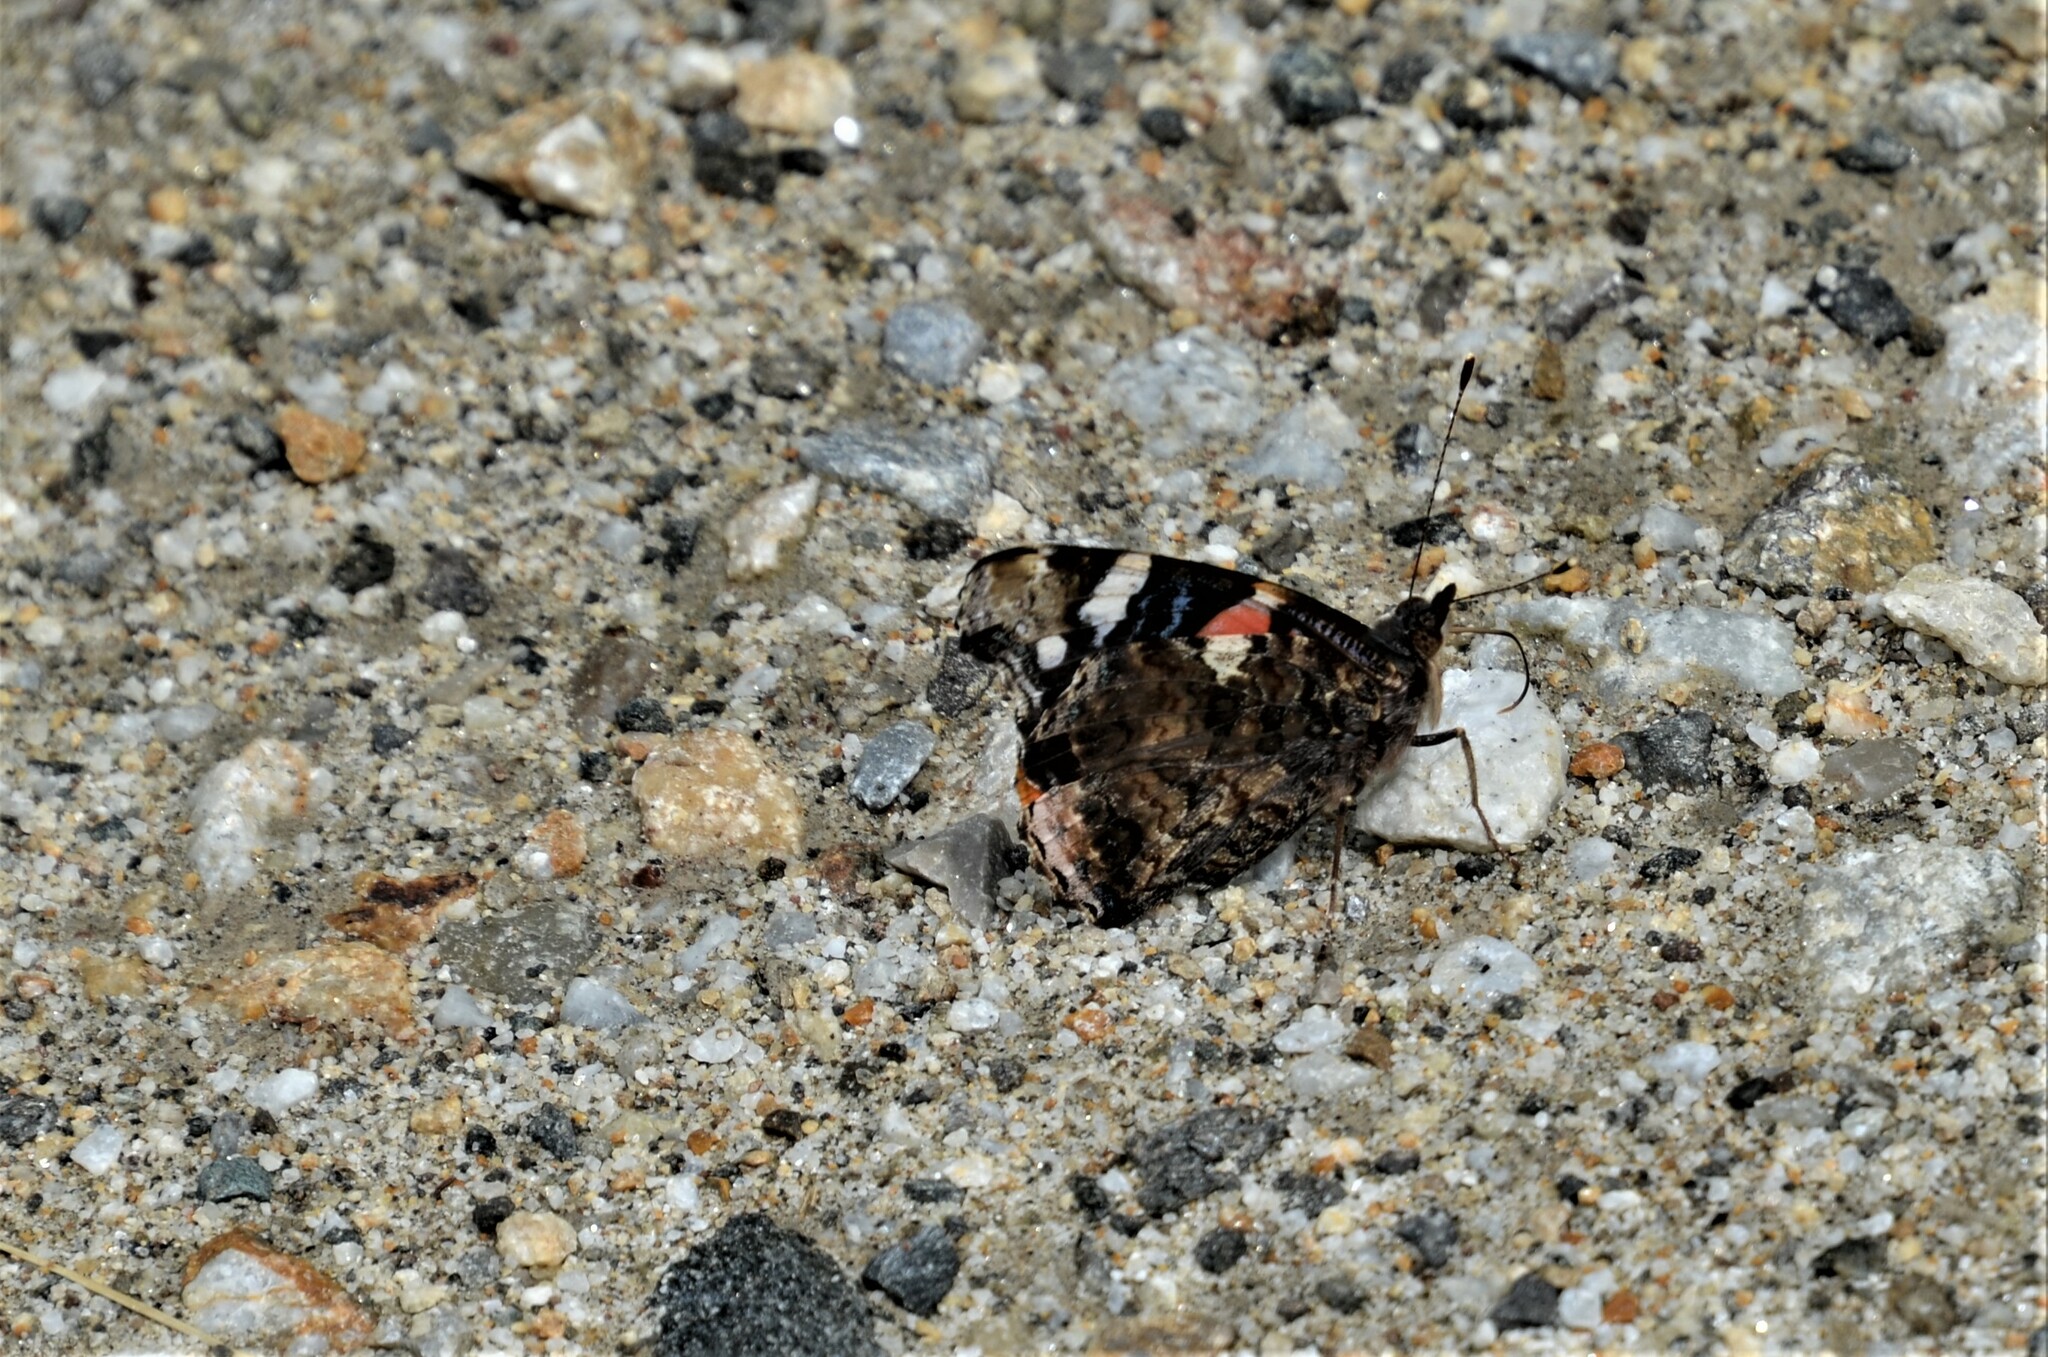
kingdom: Animalia
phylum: Arthropoda
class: Insecta
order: Lepidoptera
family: Nymphalidae
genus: Vanessa
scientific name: Vanessa atalanta
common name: Red admiral
